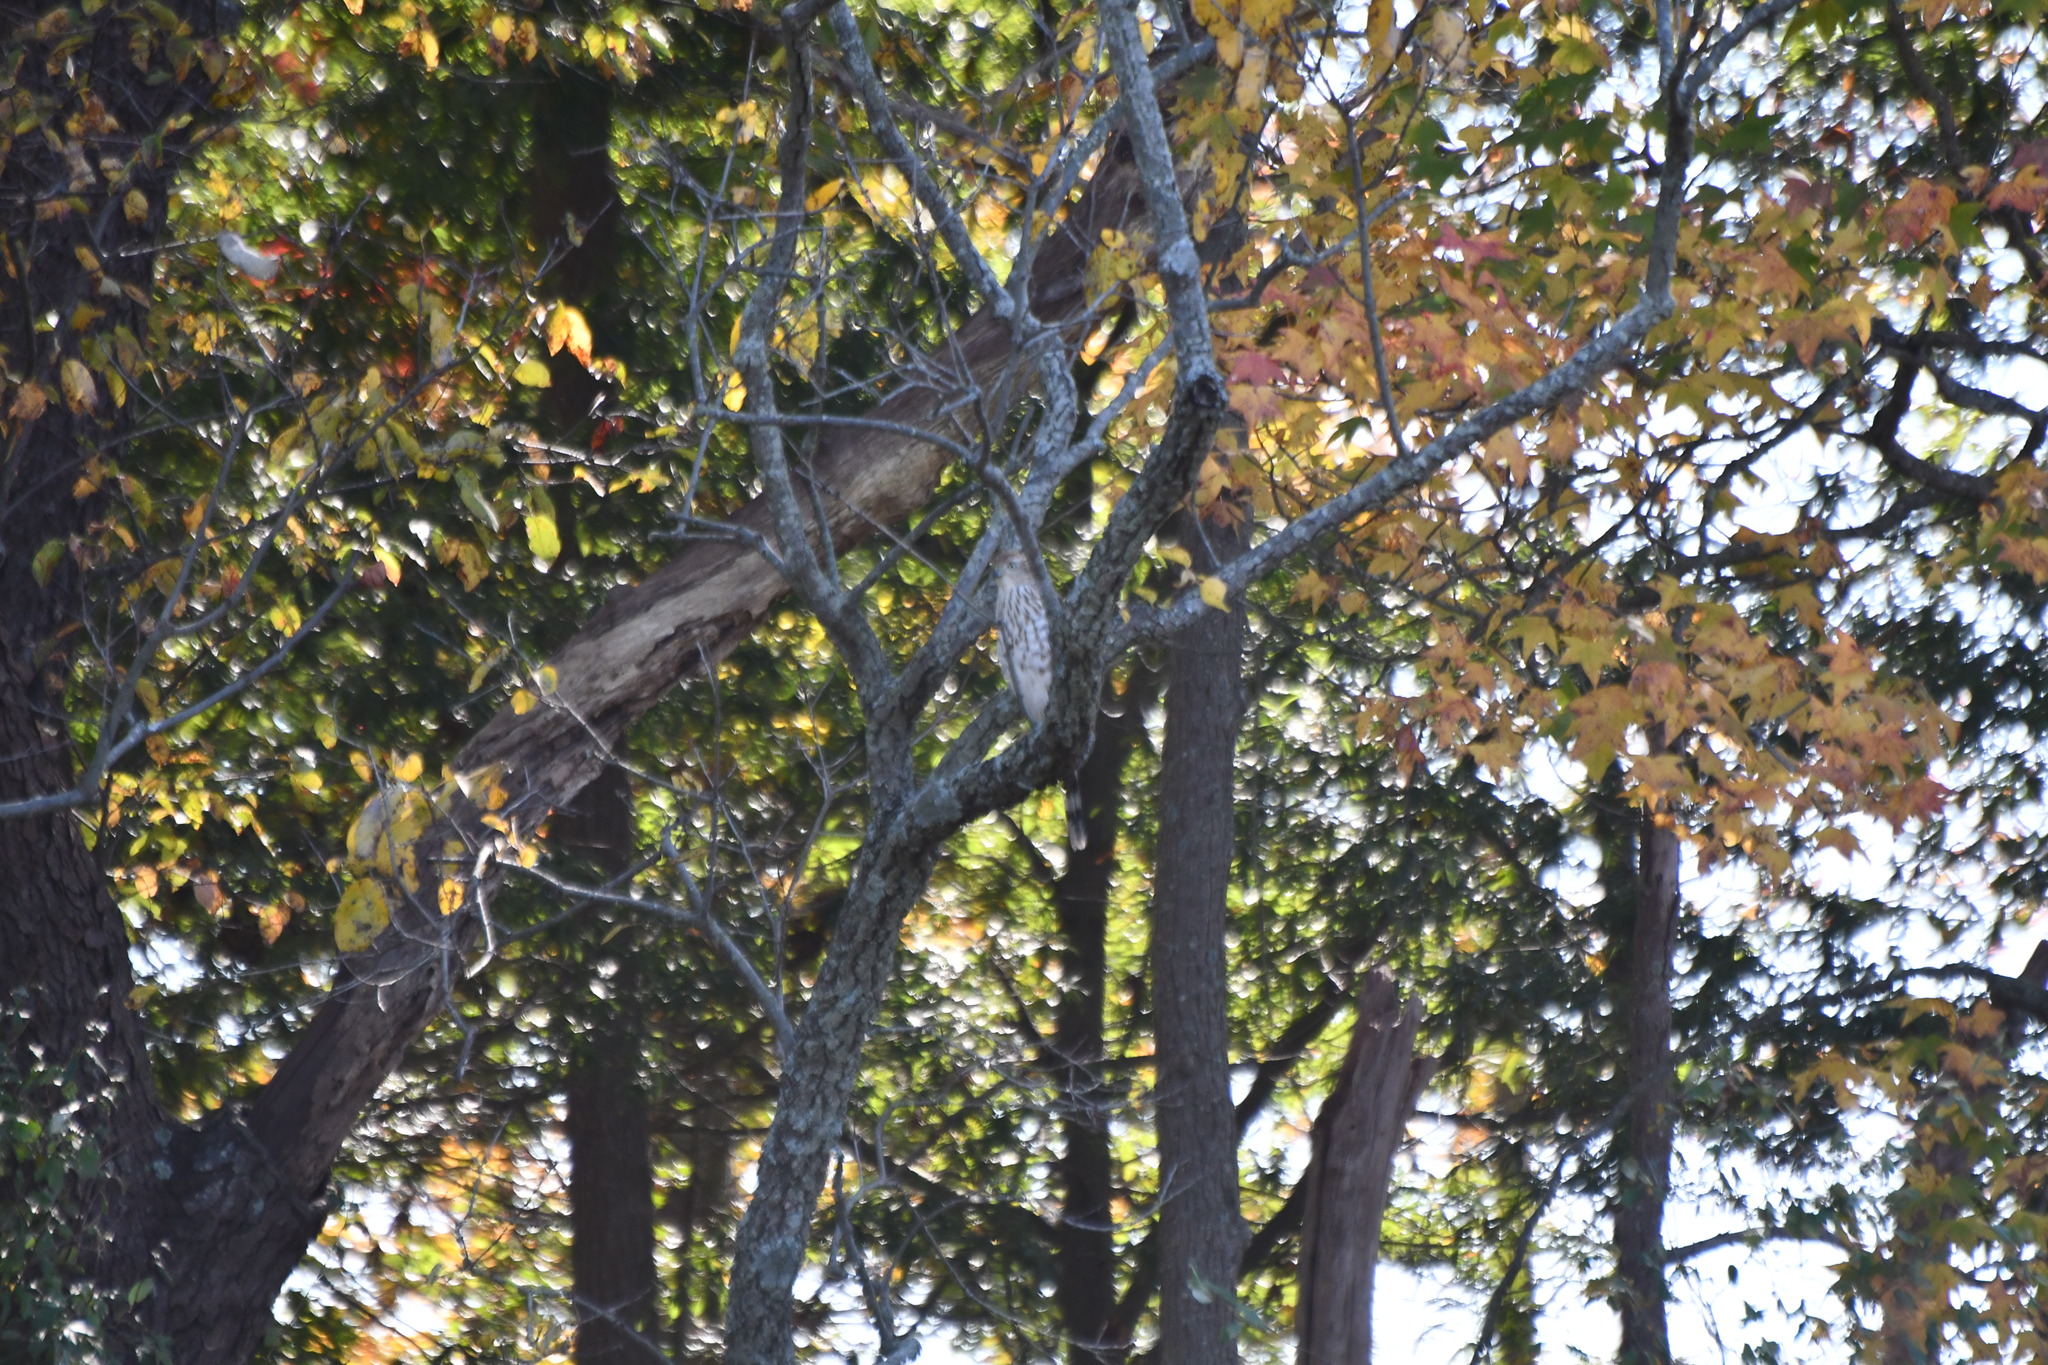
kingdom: Animalia
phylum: Chordata
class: Aves
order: Accipitriformes
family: Accipitridae
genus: Accipiter
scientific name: Accipiter cooperii
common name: Cooper's hawk
